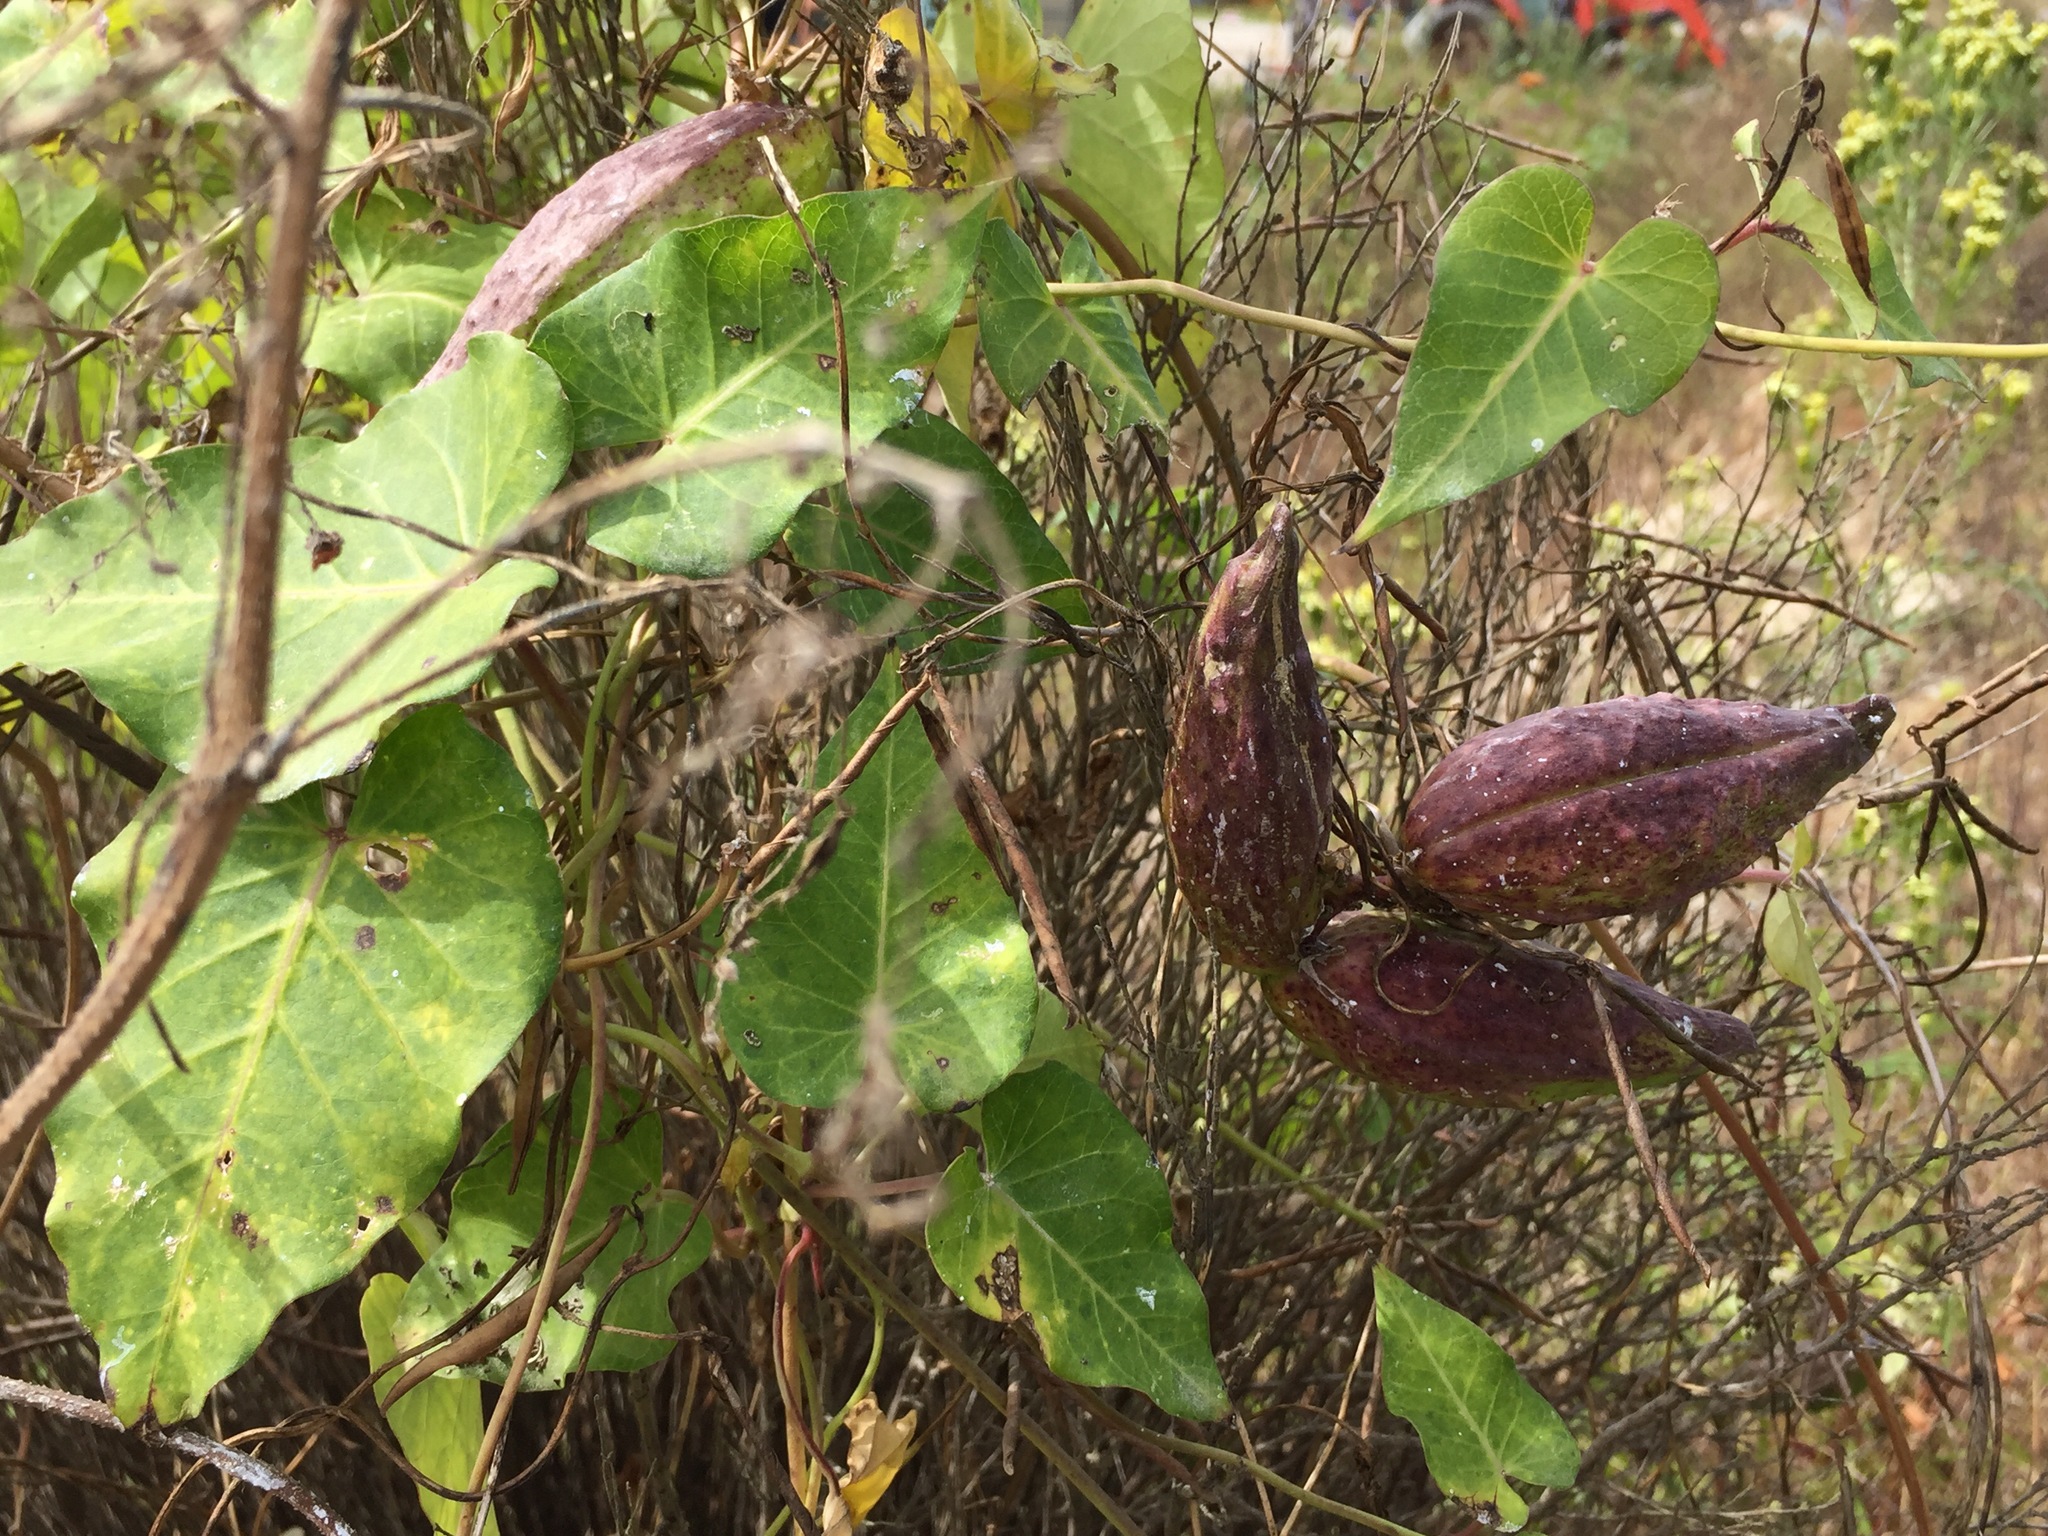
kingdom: Plantae
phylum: Tracheophyta
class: Magnoliopsida
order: Gentianales
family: Apocynaceae
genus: Cynanchum
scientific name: Cynanchum rostellatum
